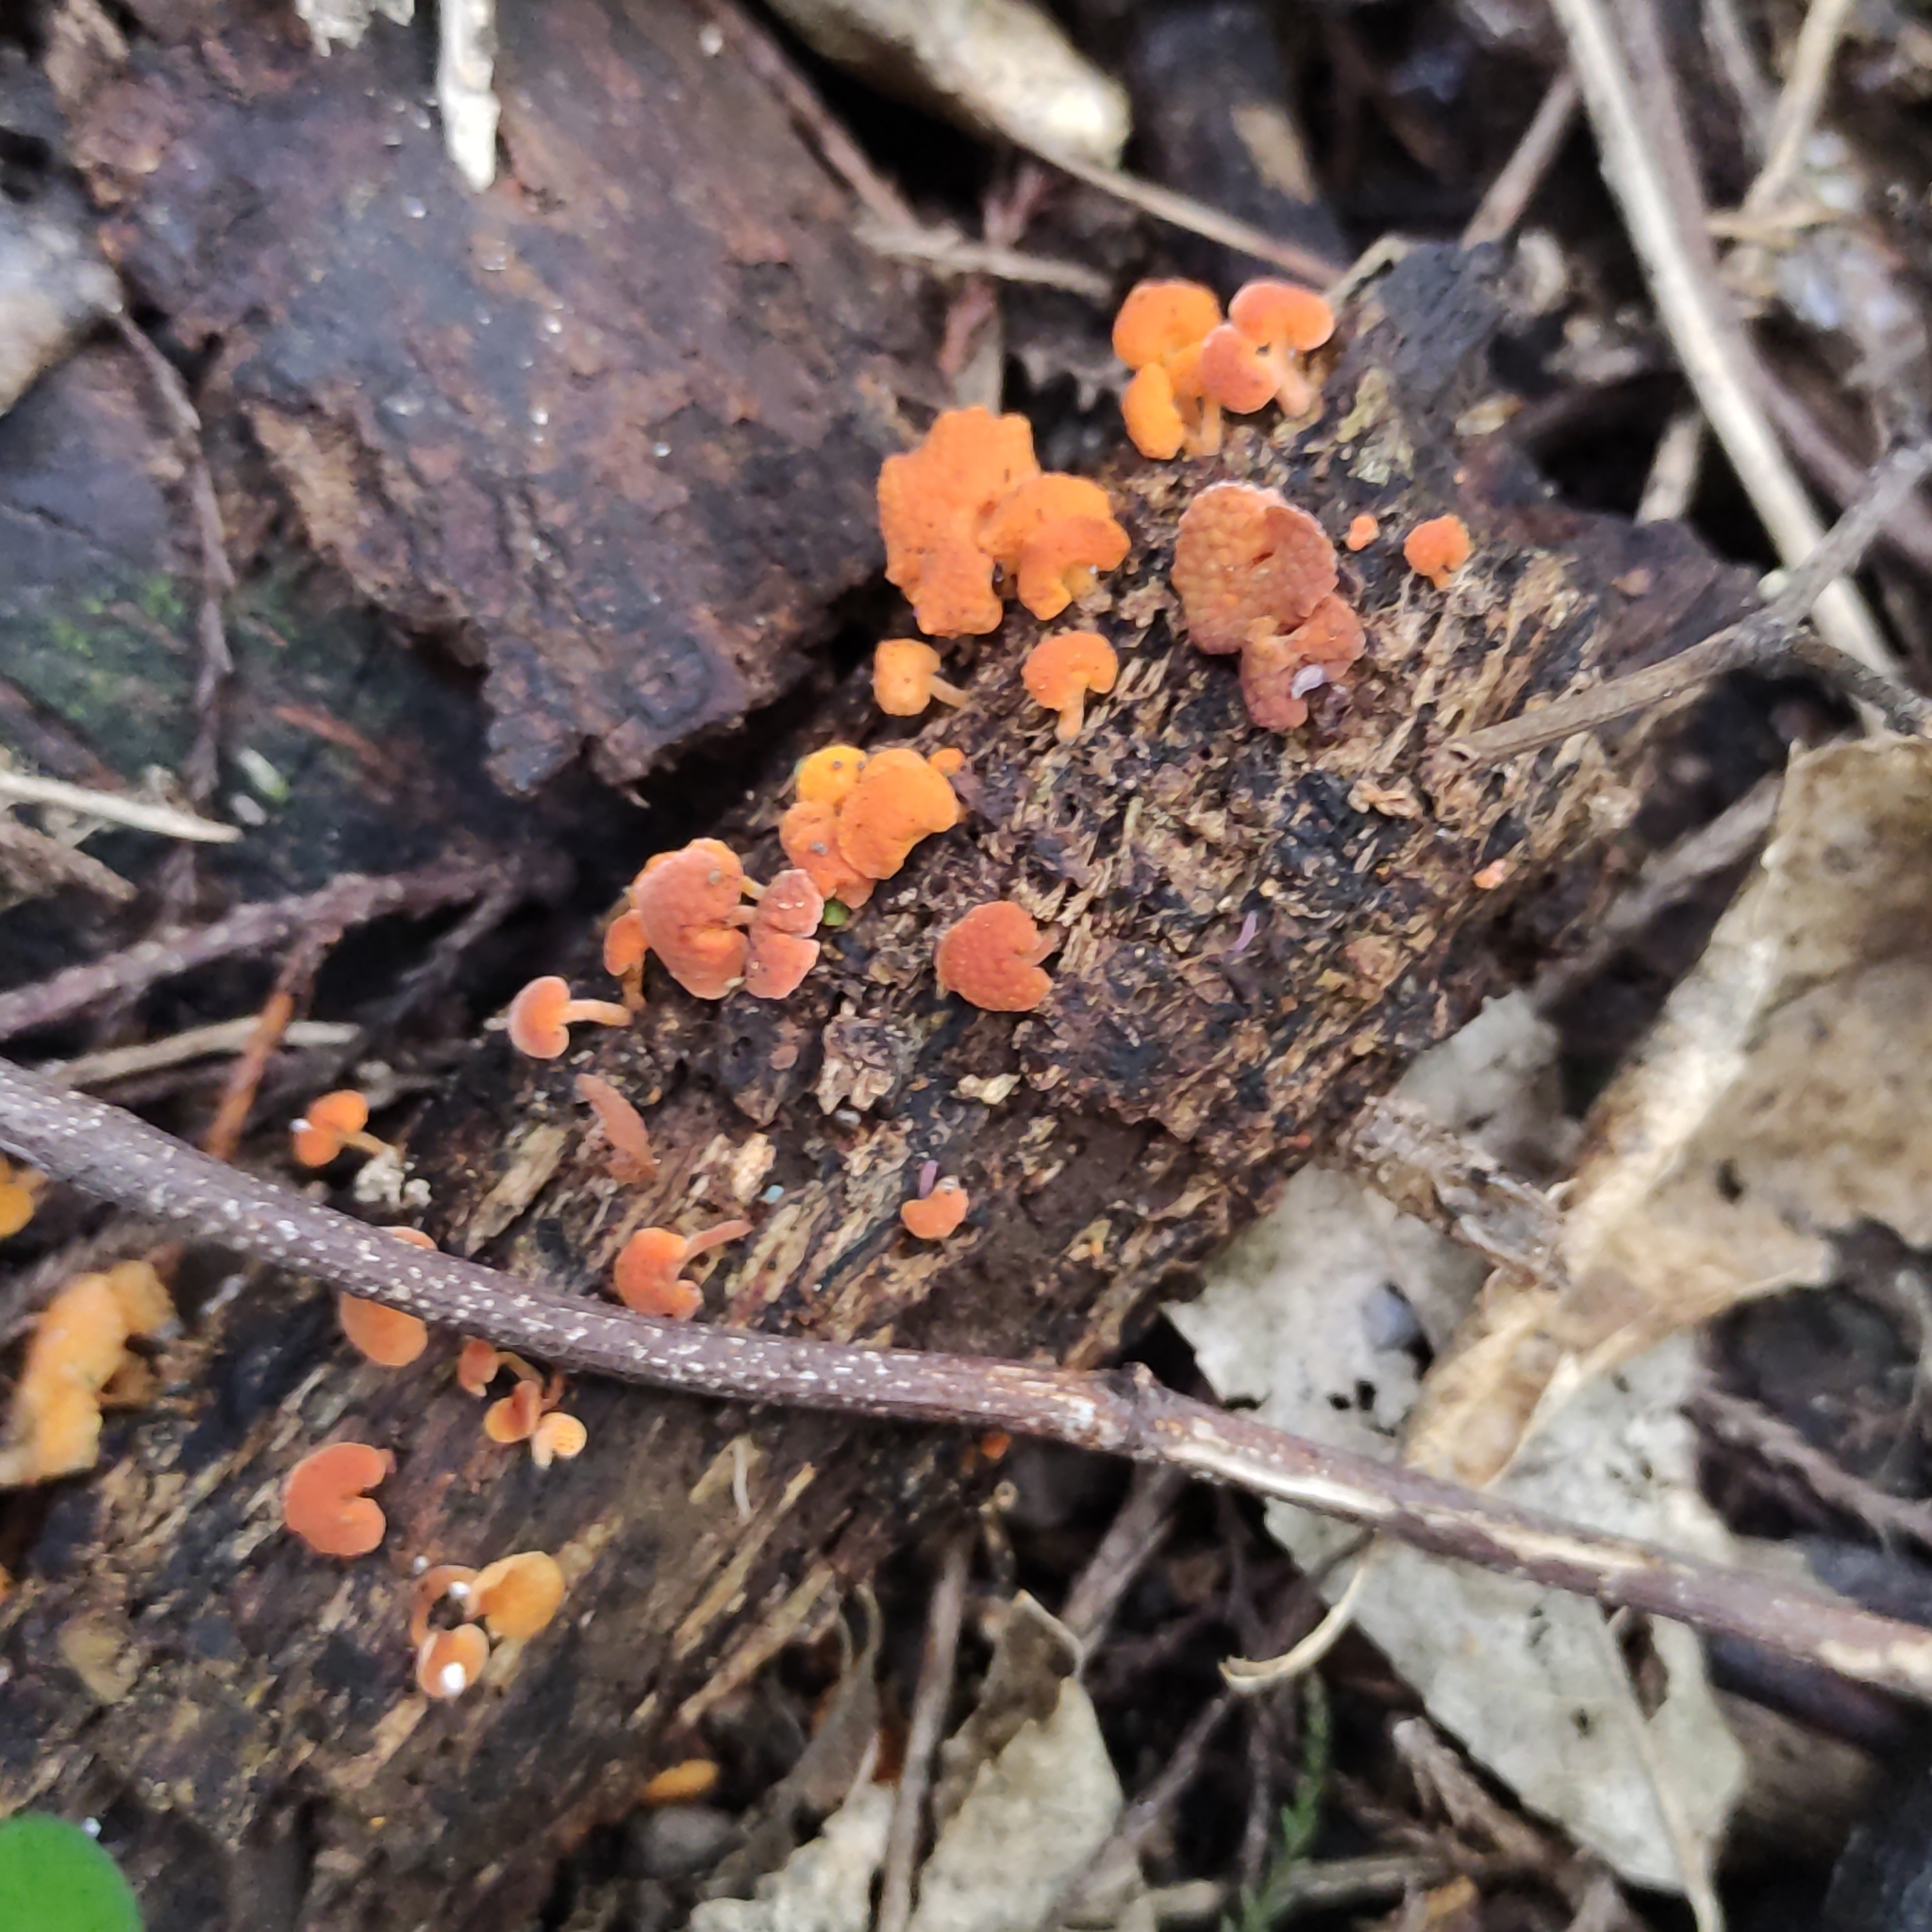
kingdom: Fungi
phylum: Basidiomycota
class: Agaricomycetes
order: Agaricales
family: Mycenaceae
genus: Favolaschia
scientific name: Favolaschia claudopus
